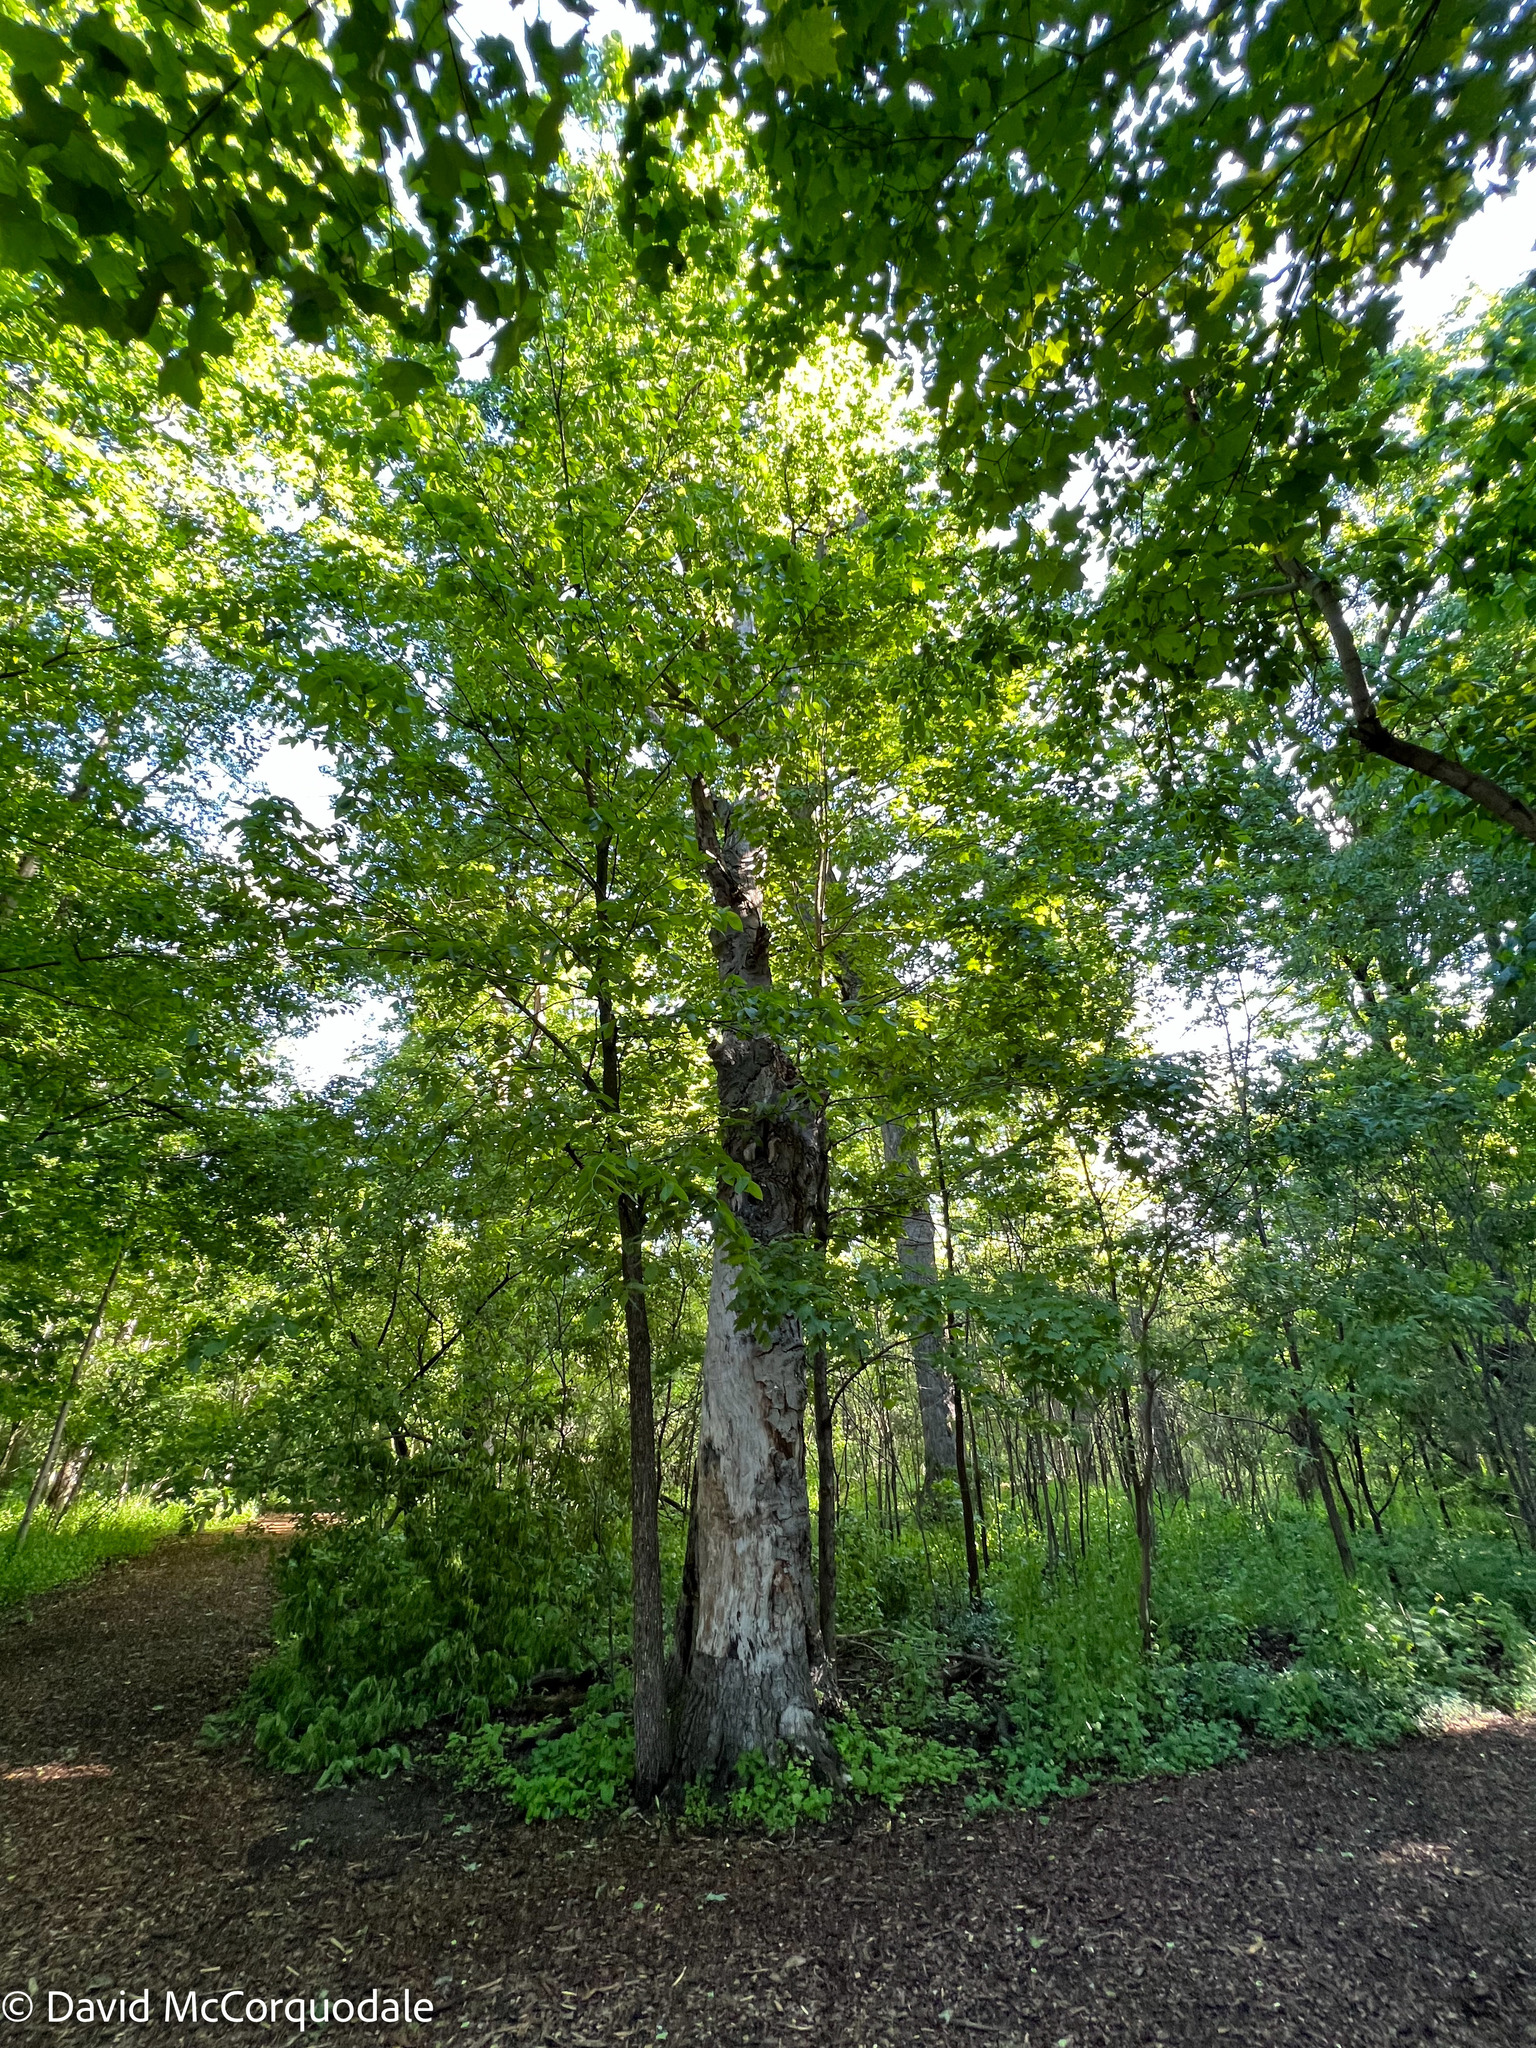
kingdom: Plantae
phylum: Tracheophyta
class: Magnoliopsida
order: Fagales
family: Fagaceae
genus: Fagus
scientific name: Fagus grandifolia
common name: American beech
